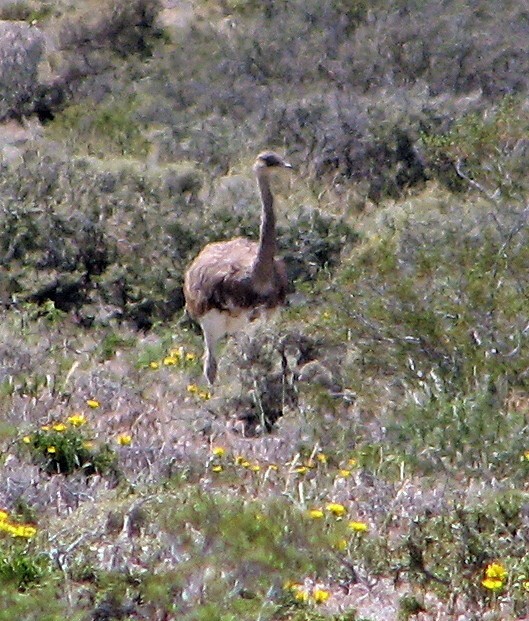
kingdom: Animalia
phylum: Chordata
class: Aves
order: Rheiformes
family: Rheidae
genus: Rhea
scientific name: Rhea pennata
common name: Lesser rhea
